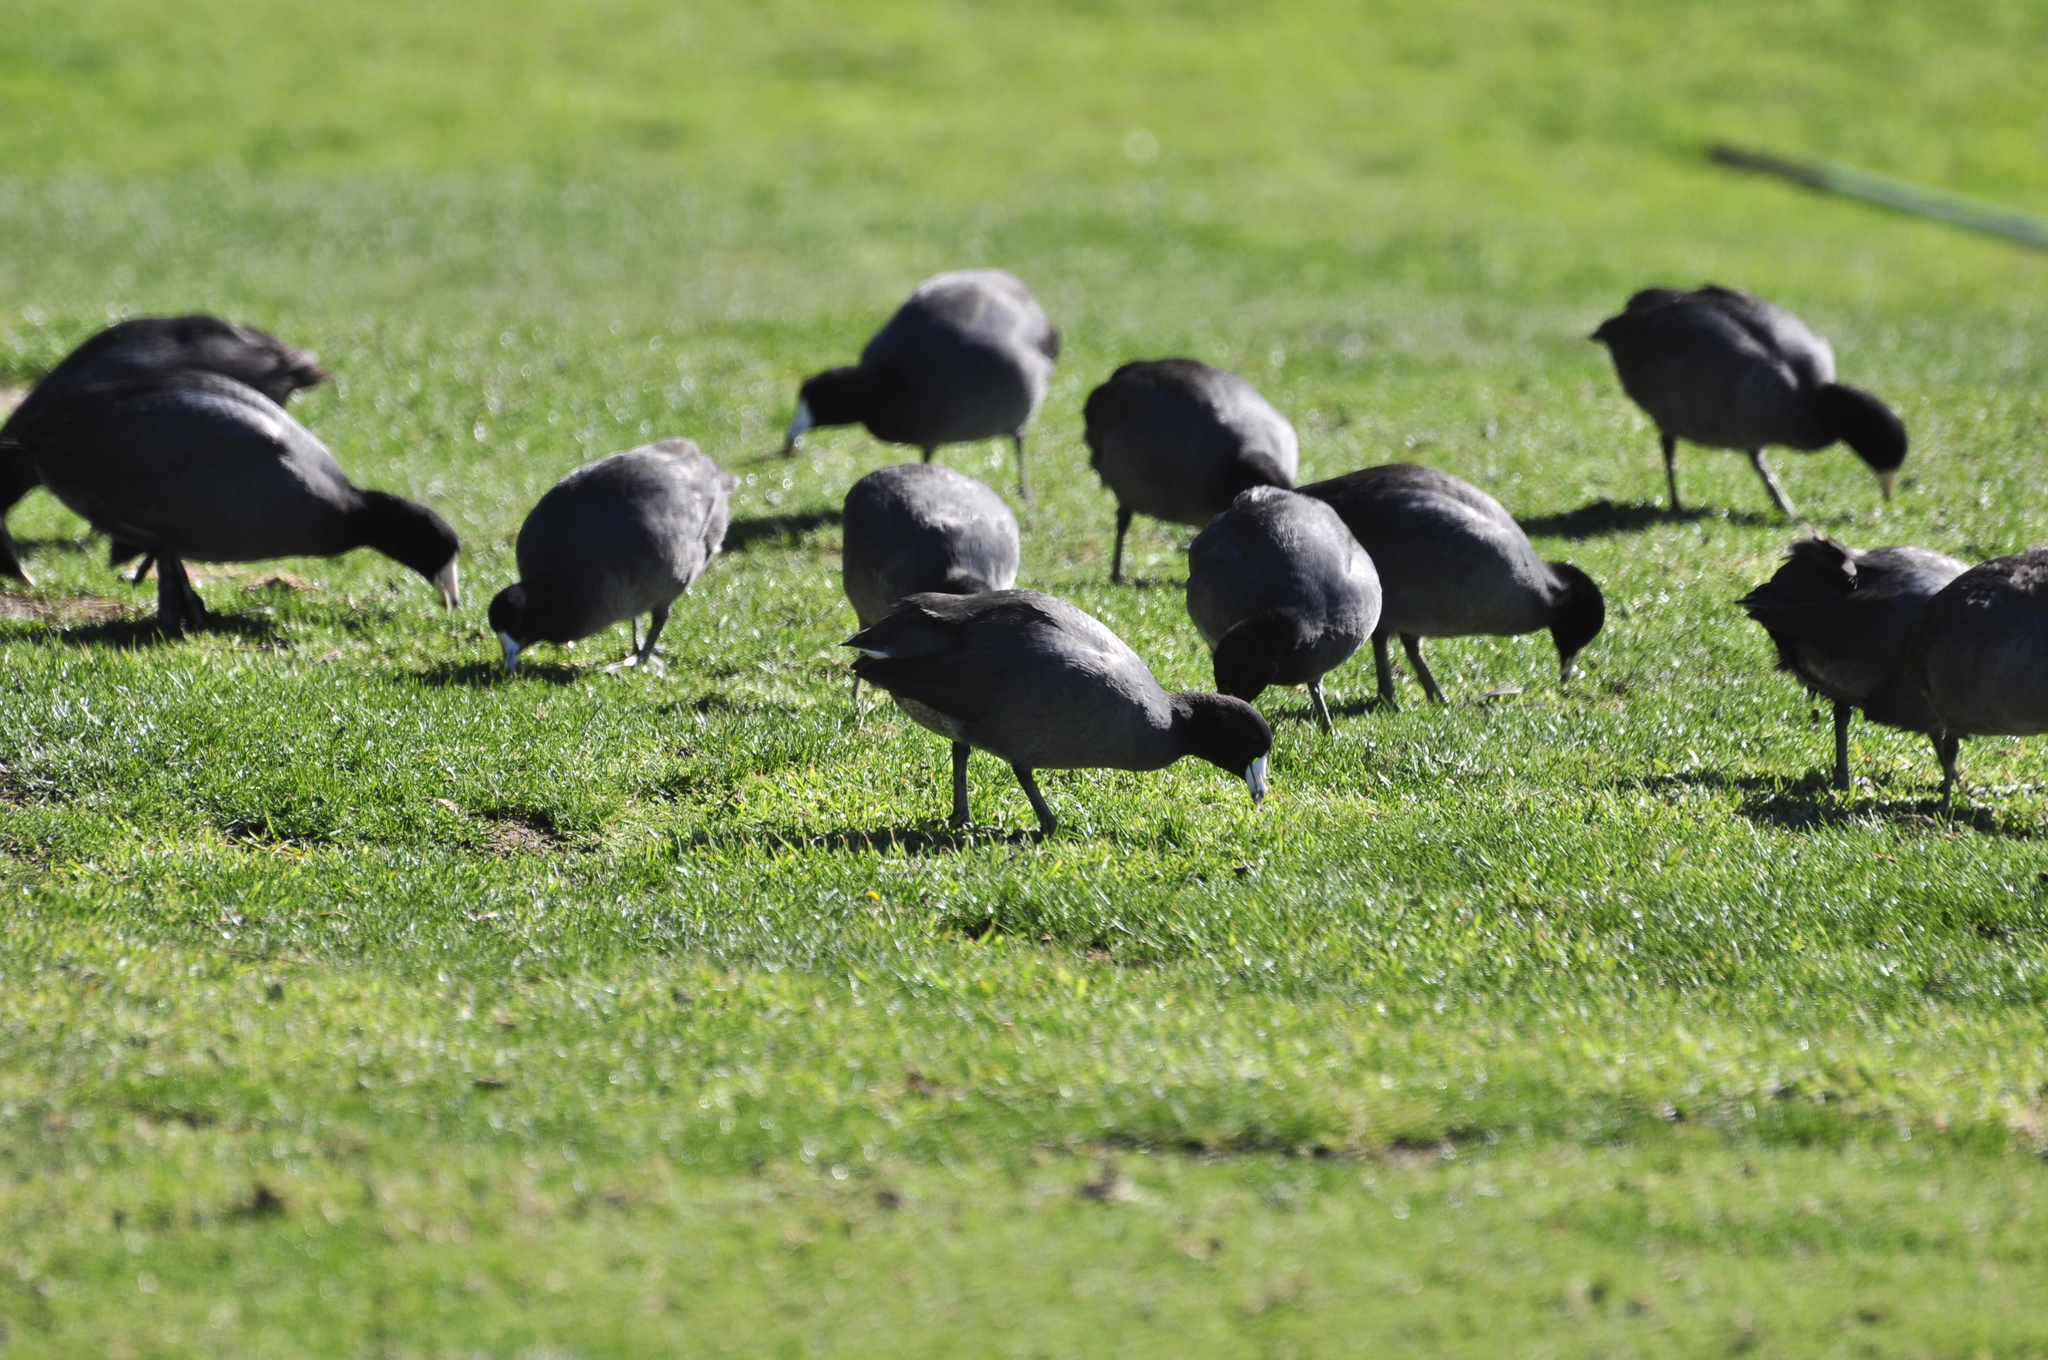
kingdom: Animalia
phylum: Chordata
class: Aves
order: Gruiformes
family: Rallidae
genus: Fulica
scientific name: Fulica americana
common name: American coot
